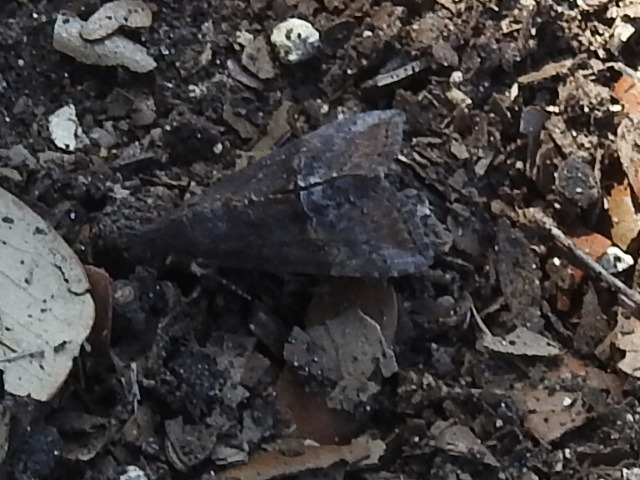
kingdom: Animalia
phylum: Arthropoda
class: Insecta
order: Lepidoptera
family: Erebidae
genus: Hypena
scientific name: Hypena scabra
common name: Green cloverworm
